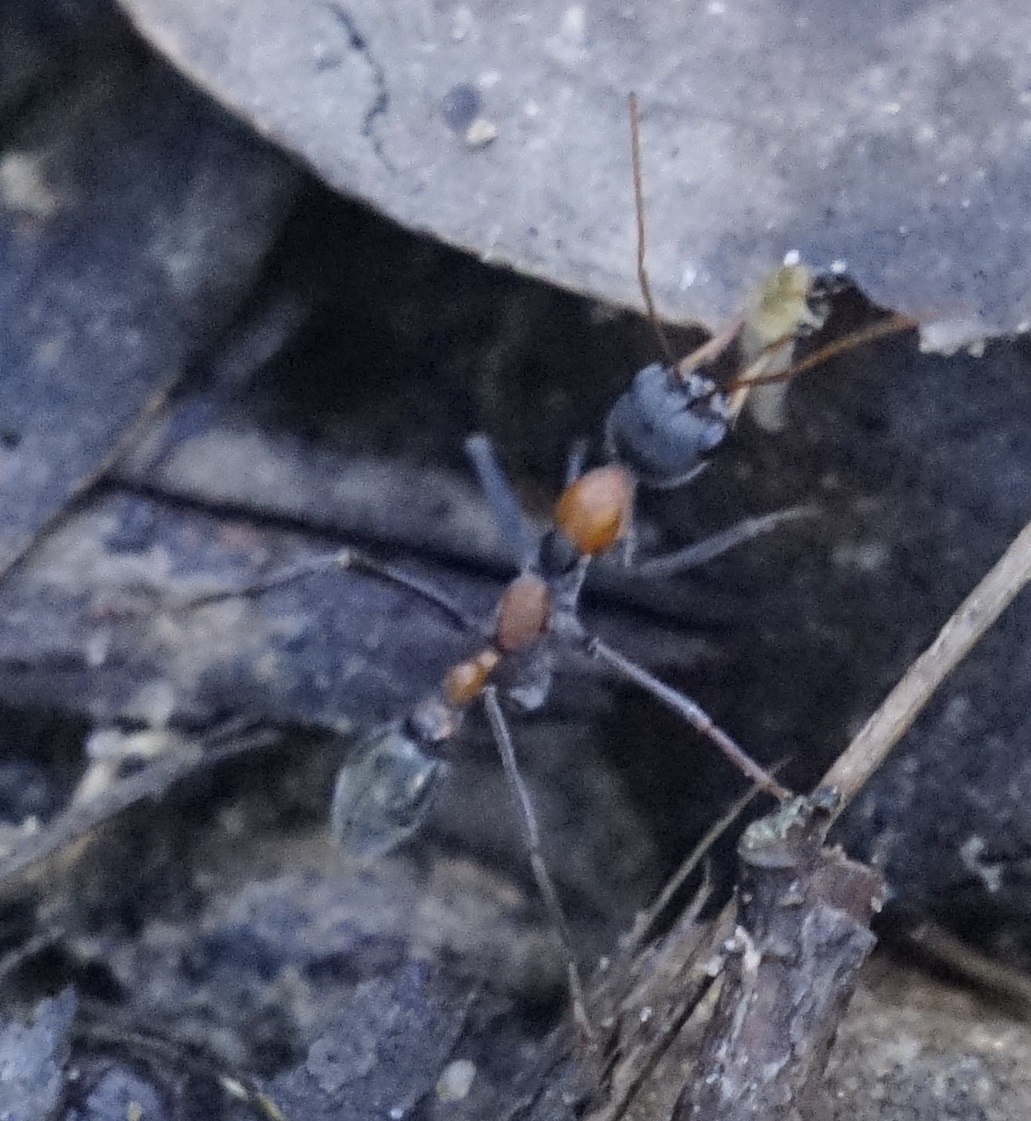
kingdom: Animalia
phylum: Arthropoda
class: Insecta
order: Hymenoptera
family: Formicidae
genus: Myrmecia
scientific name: Myrmecia nigrocincta
